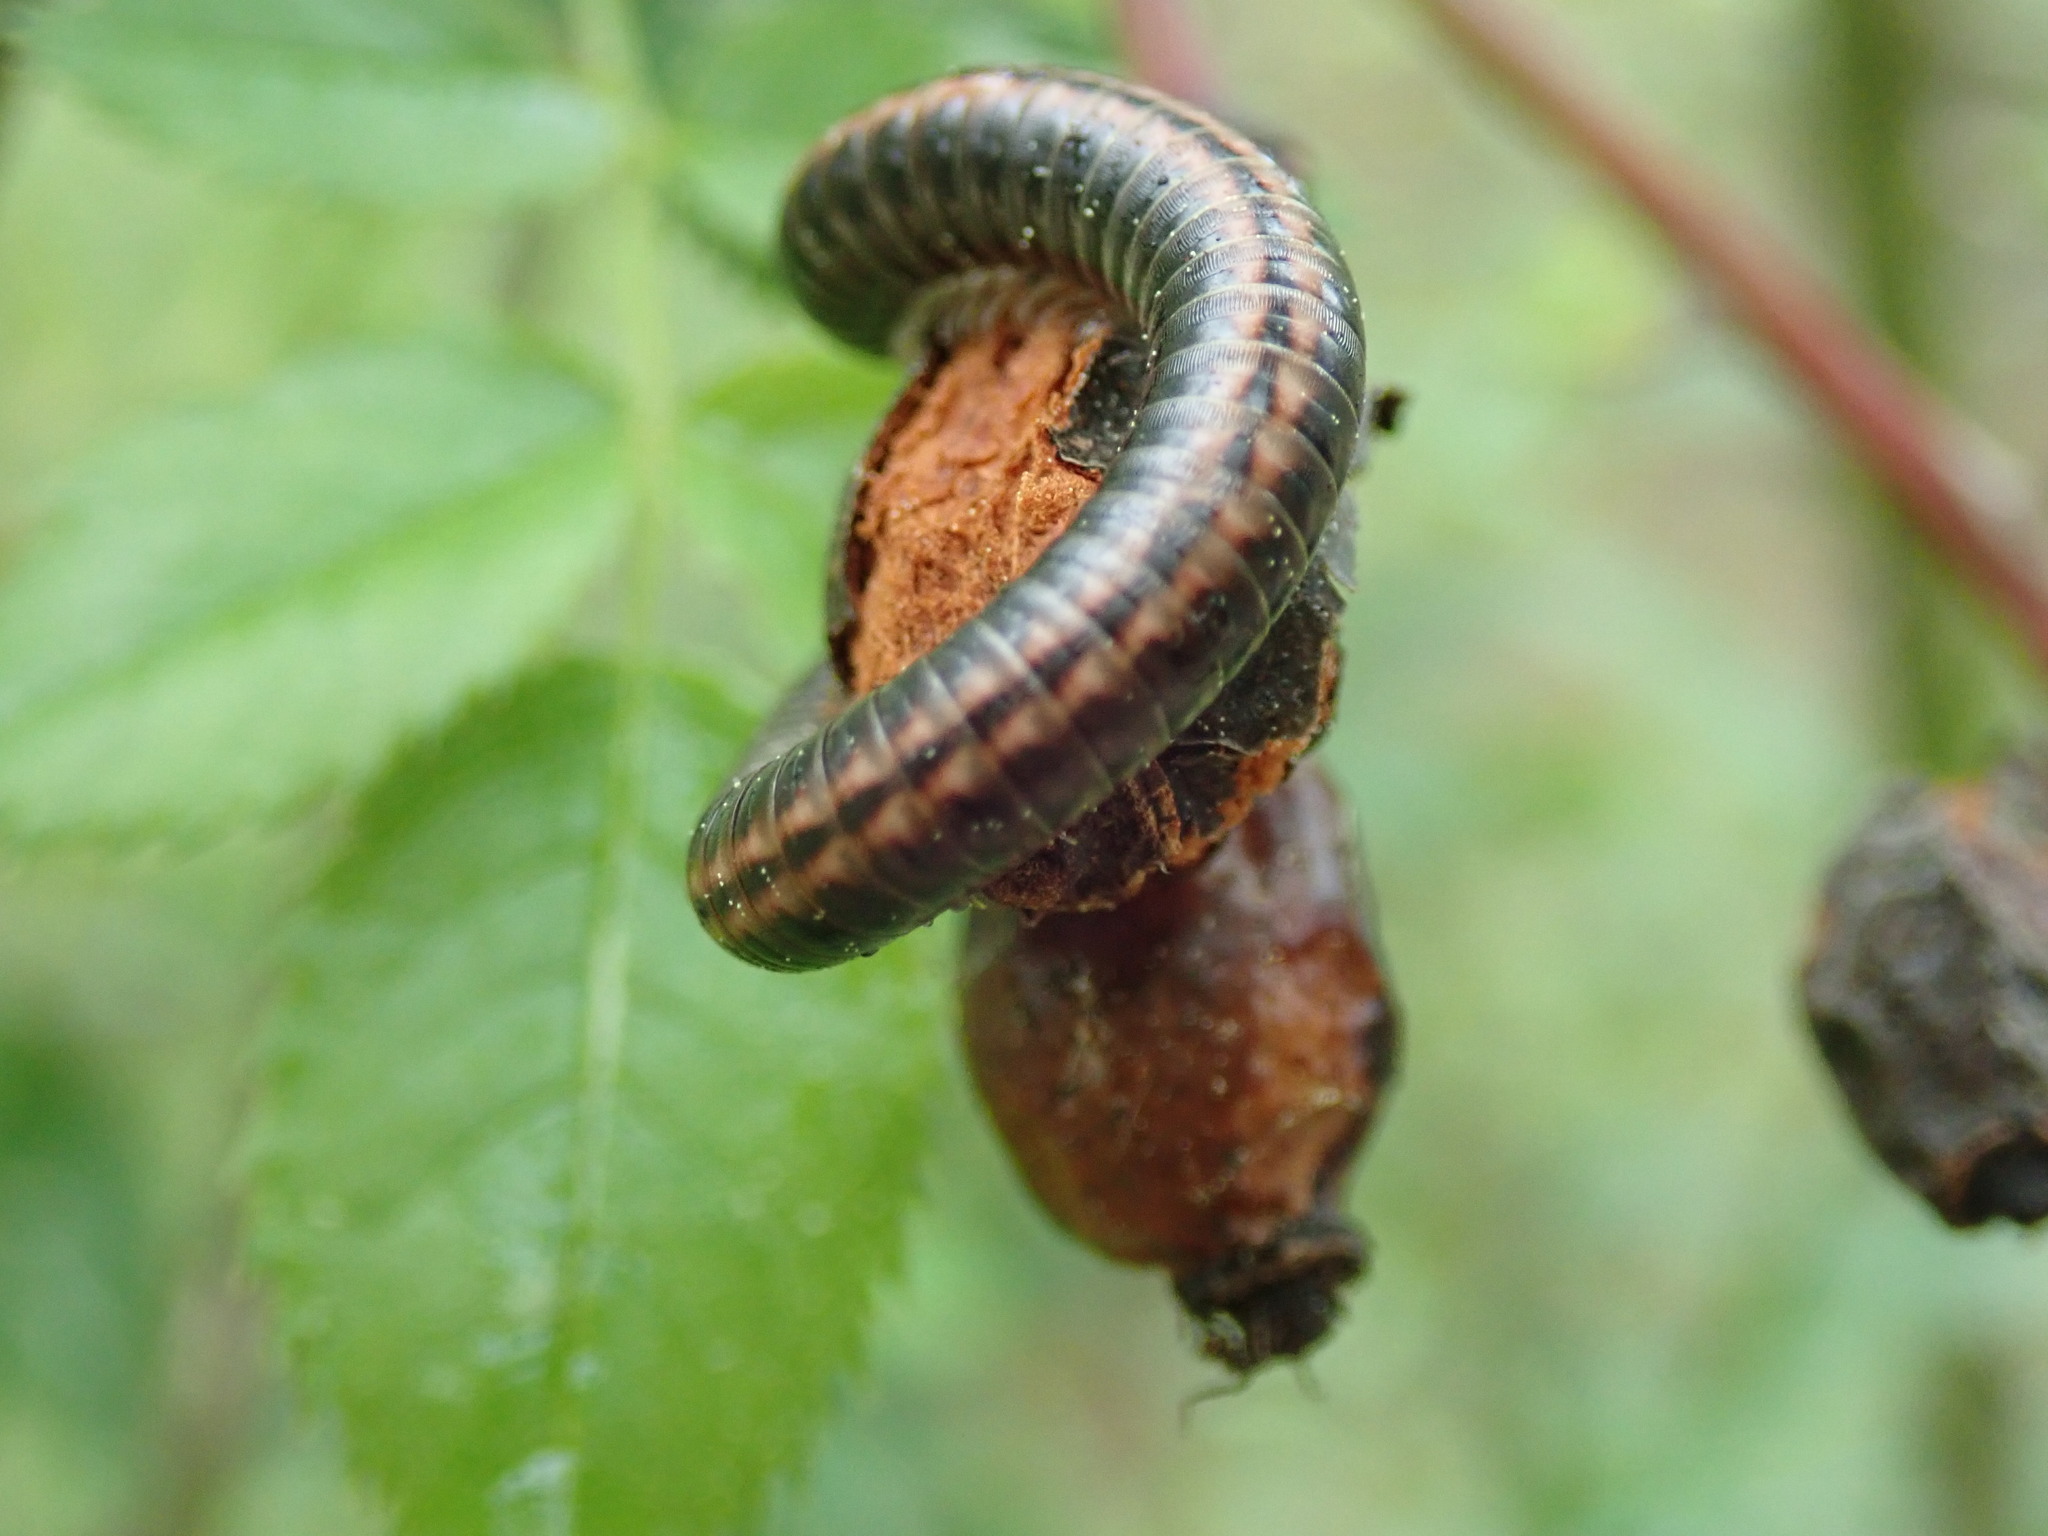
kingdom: Animalia
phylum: Arthropoda
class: Diplopoda
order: Julida
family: Julidae
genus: Ommatoiulus
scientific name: Ommatoiulus sabulosus
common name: Striped millipede
